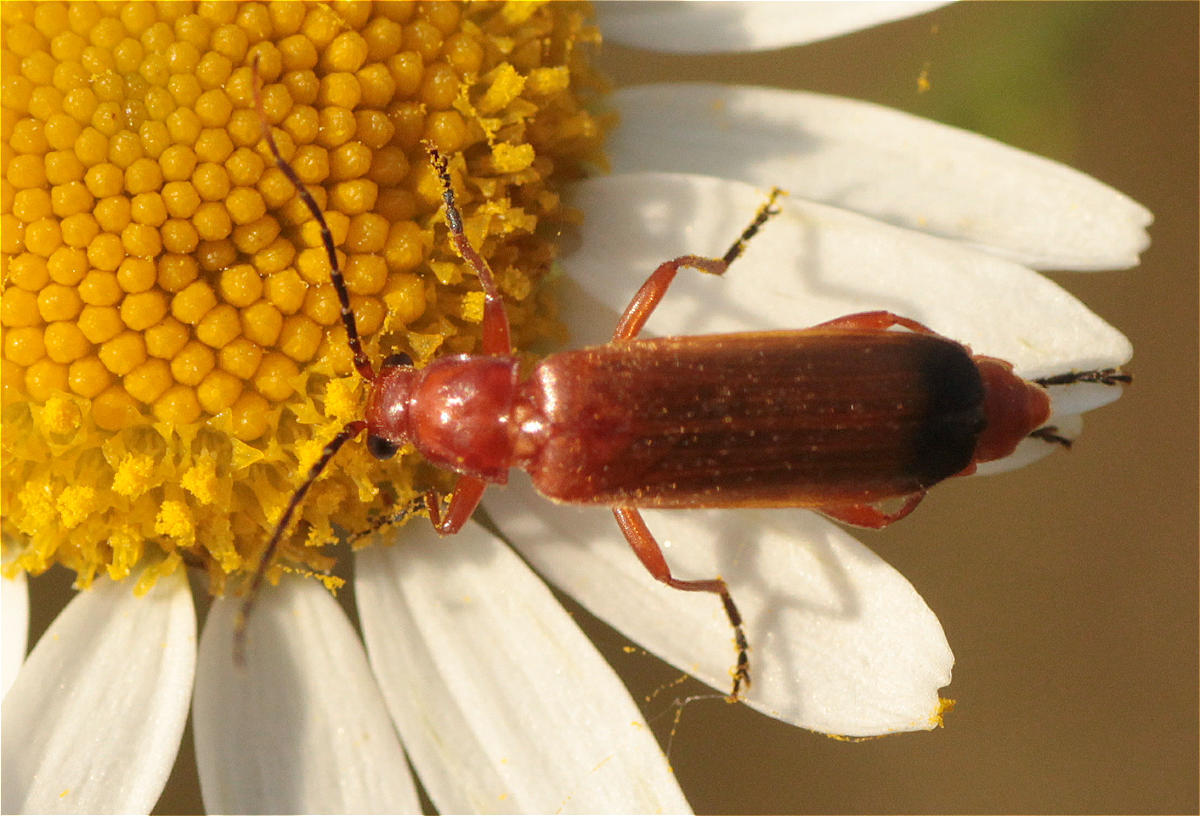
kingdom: Animalia
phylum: Arthropoda
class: Insecta
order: Coleoptera
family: Cantharidae
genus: Rhagonycha
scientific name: Rhagonycha fulva
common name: Common red soldier beetle
